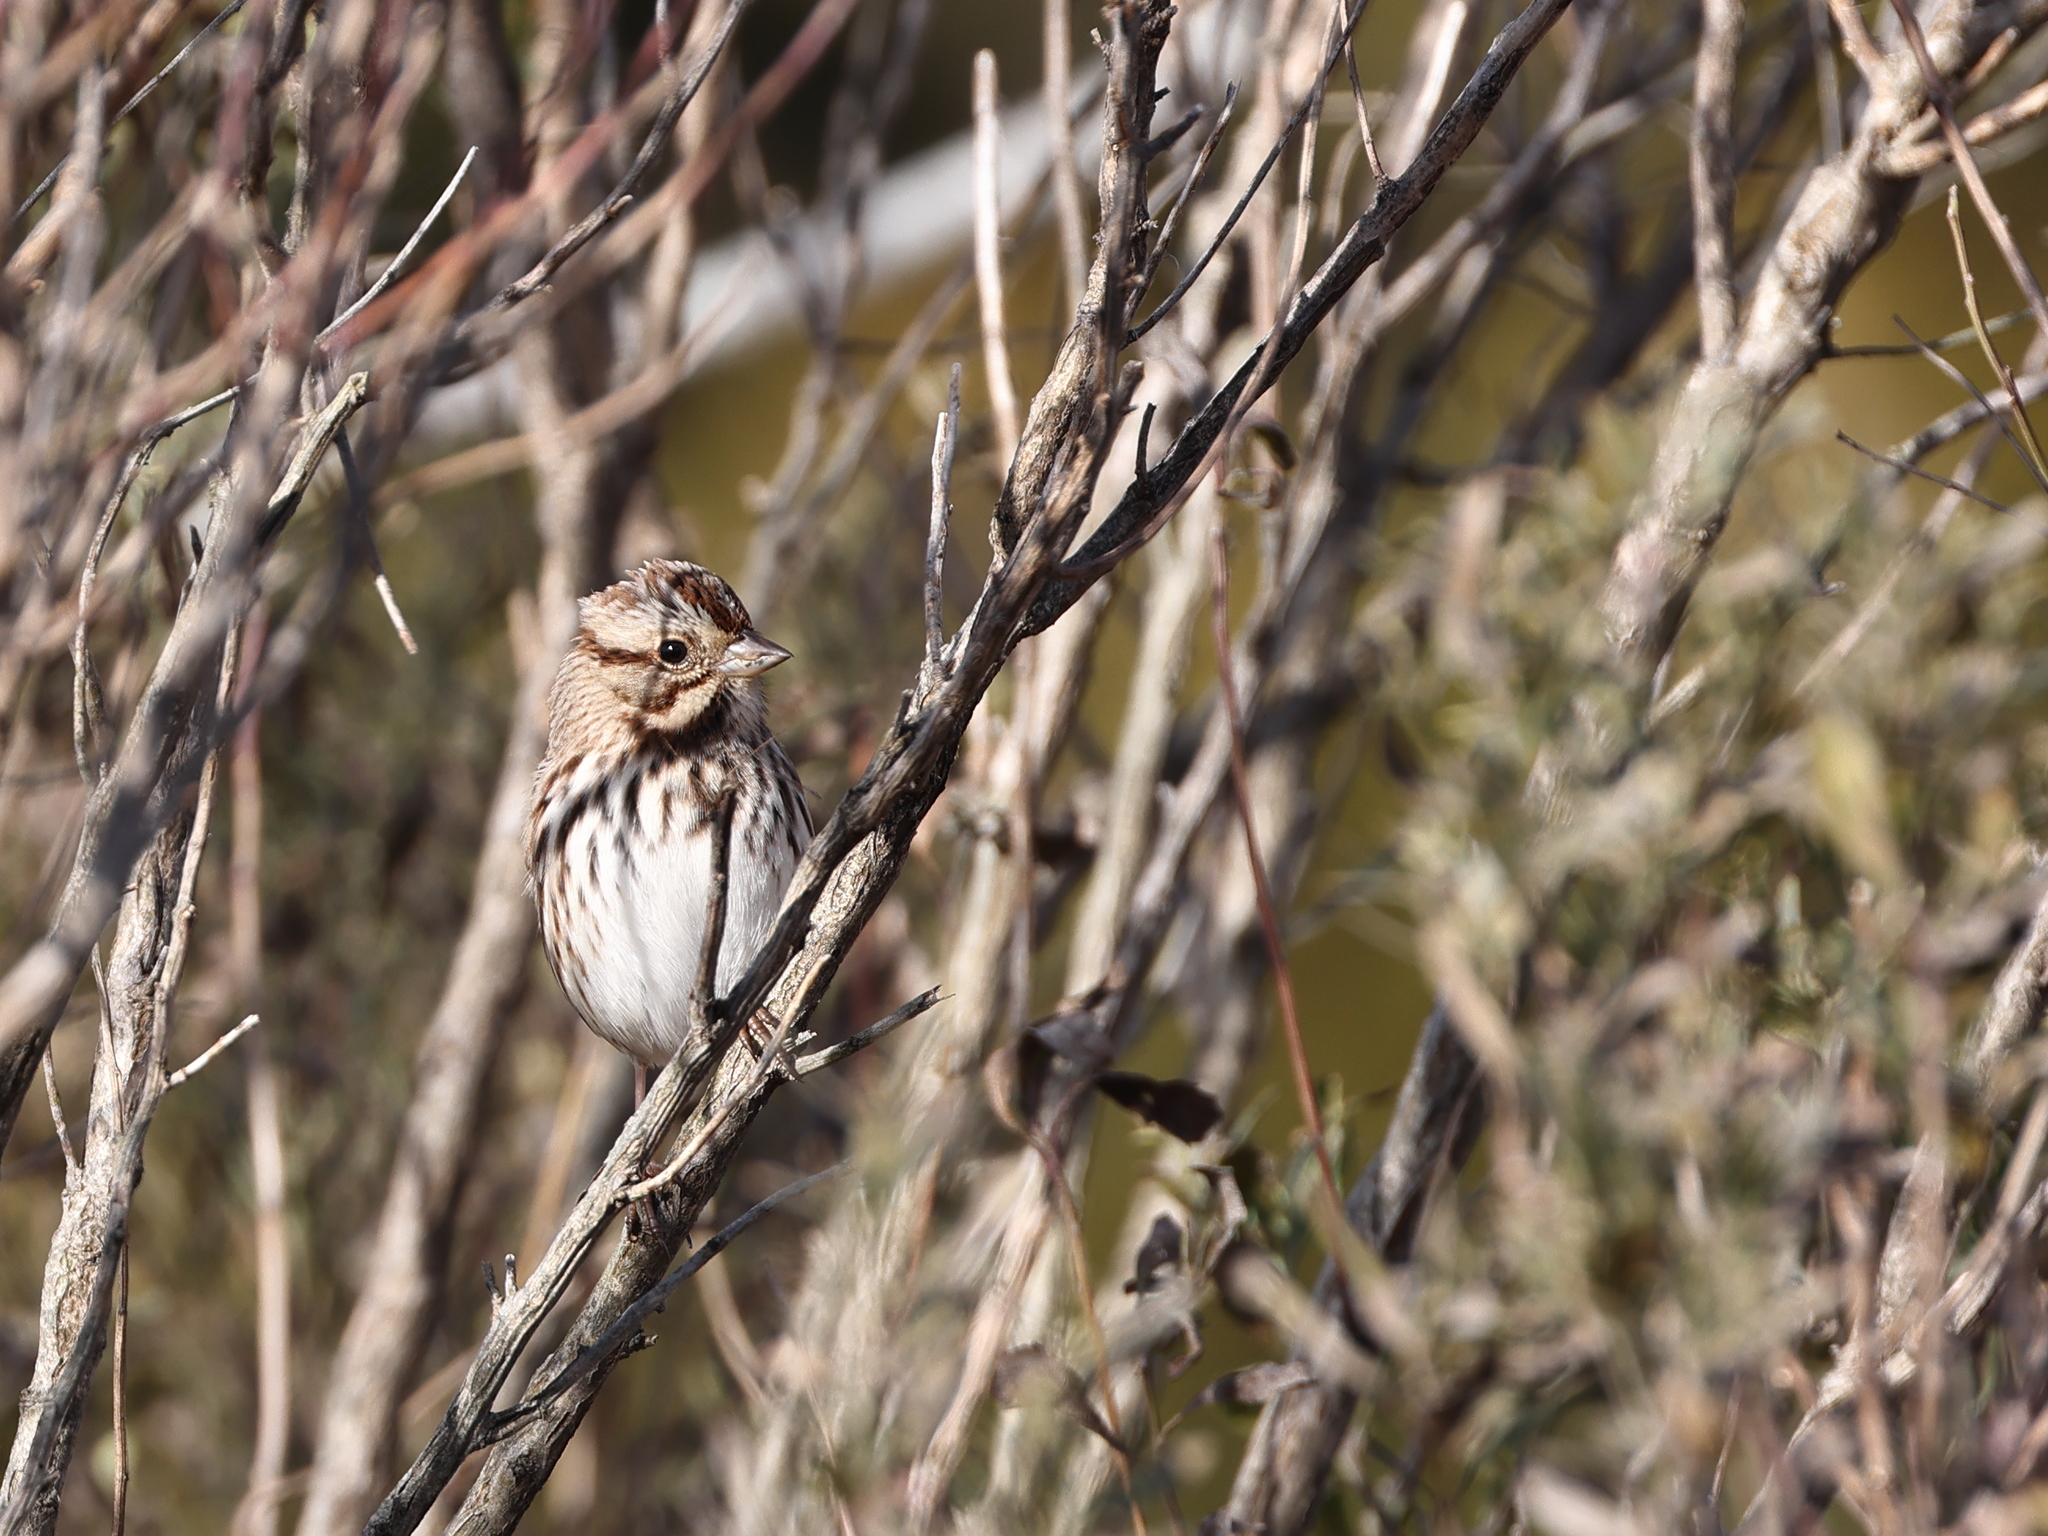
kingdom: Animalia
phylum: Chordata
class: Aves
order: Passeriformes
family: Passerellidae
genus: Melospiza
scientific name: Melospiza melodia
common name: Song sparrow
